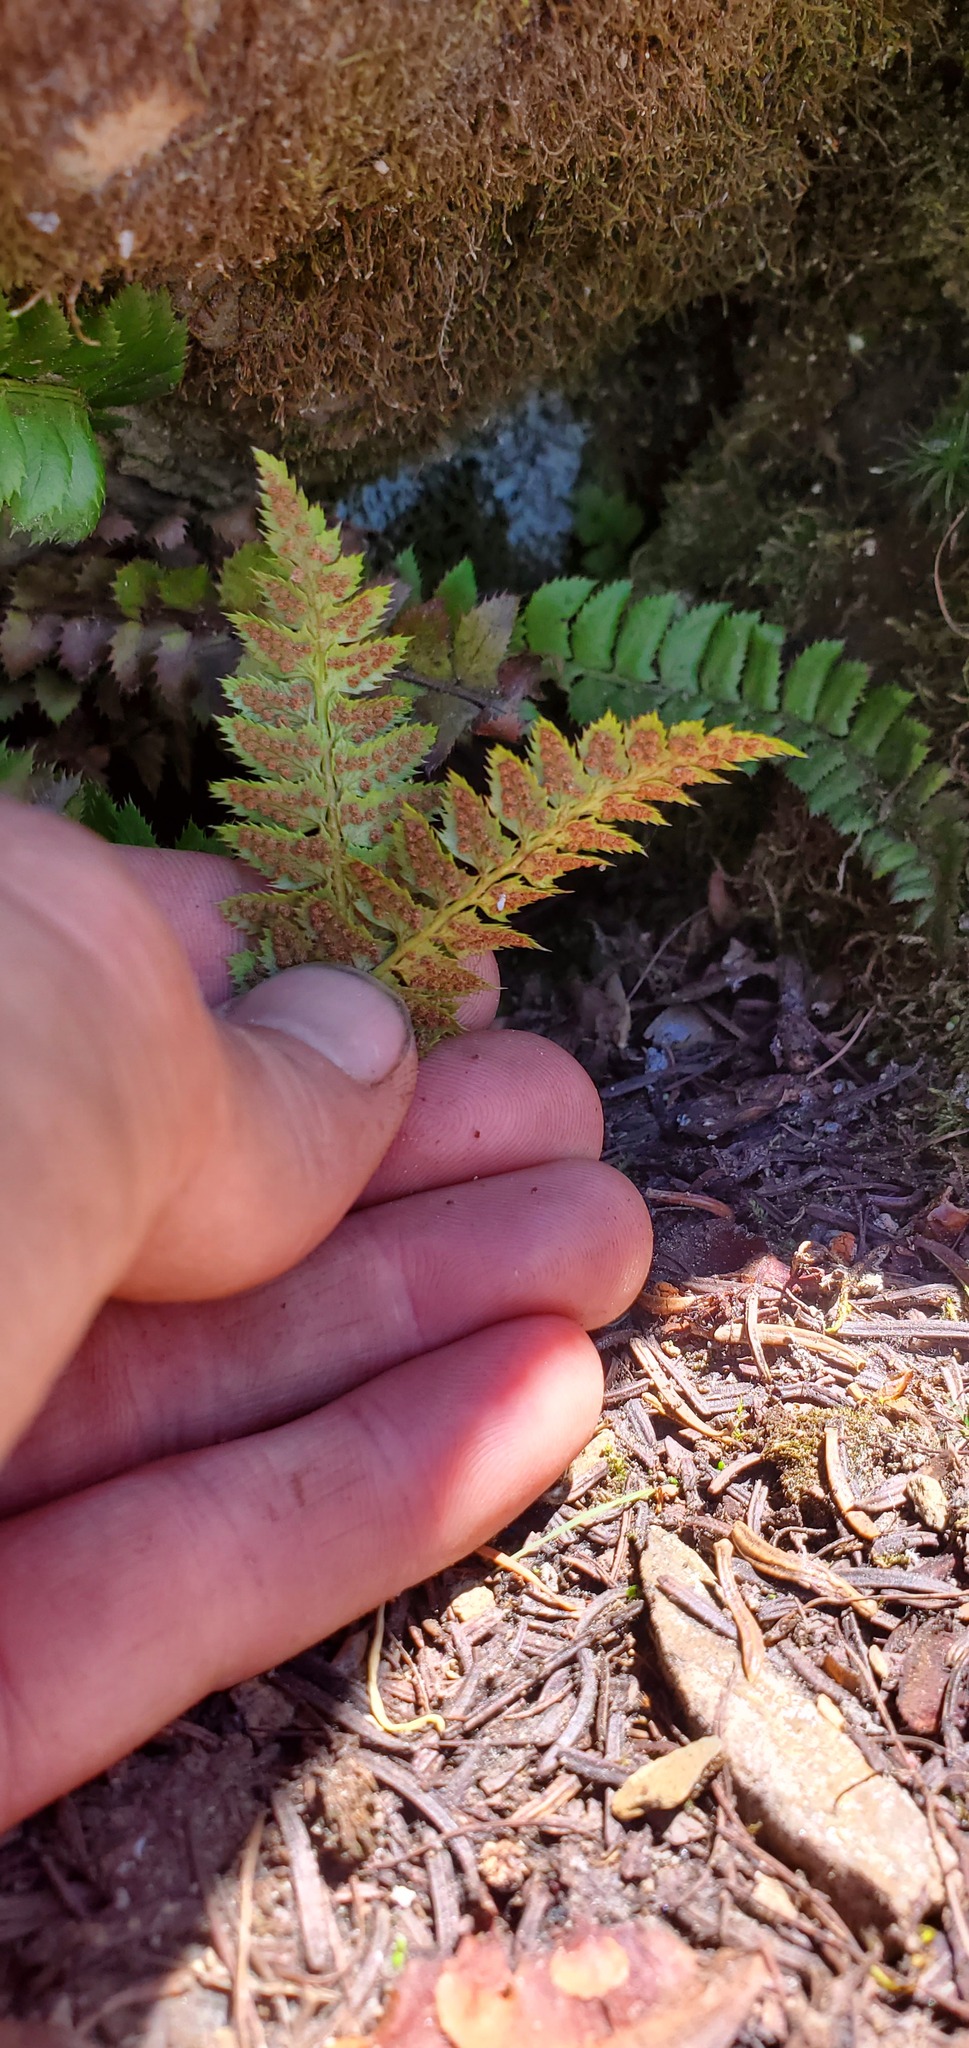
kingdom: Plantae
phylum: Tracheophyta
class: Polypodiopsida
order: Polypodiales
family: Dryopteridaceae
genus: Polystichum
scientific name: Polystichum lonchitis
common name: Holly fern
